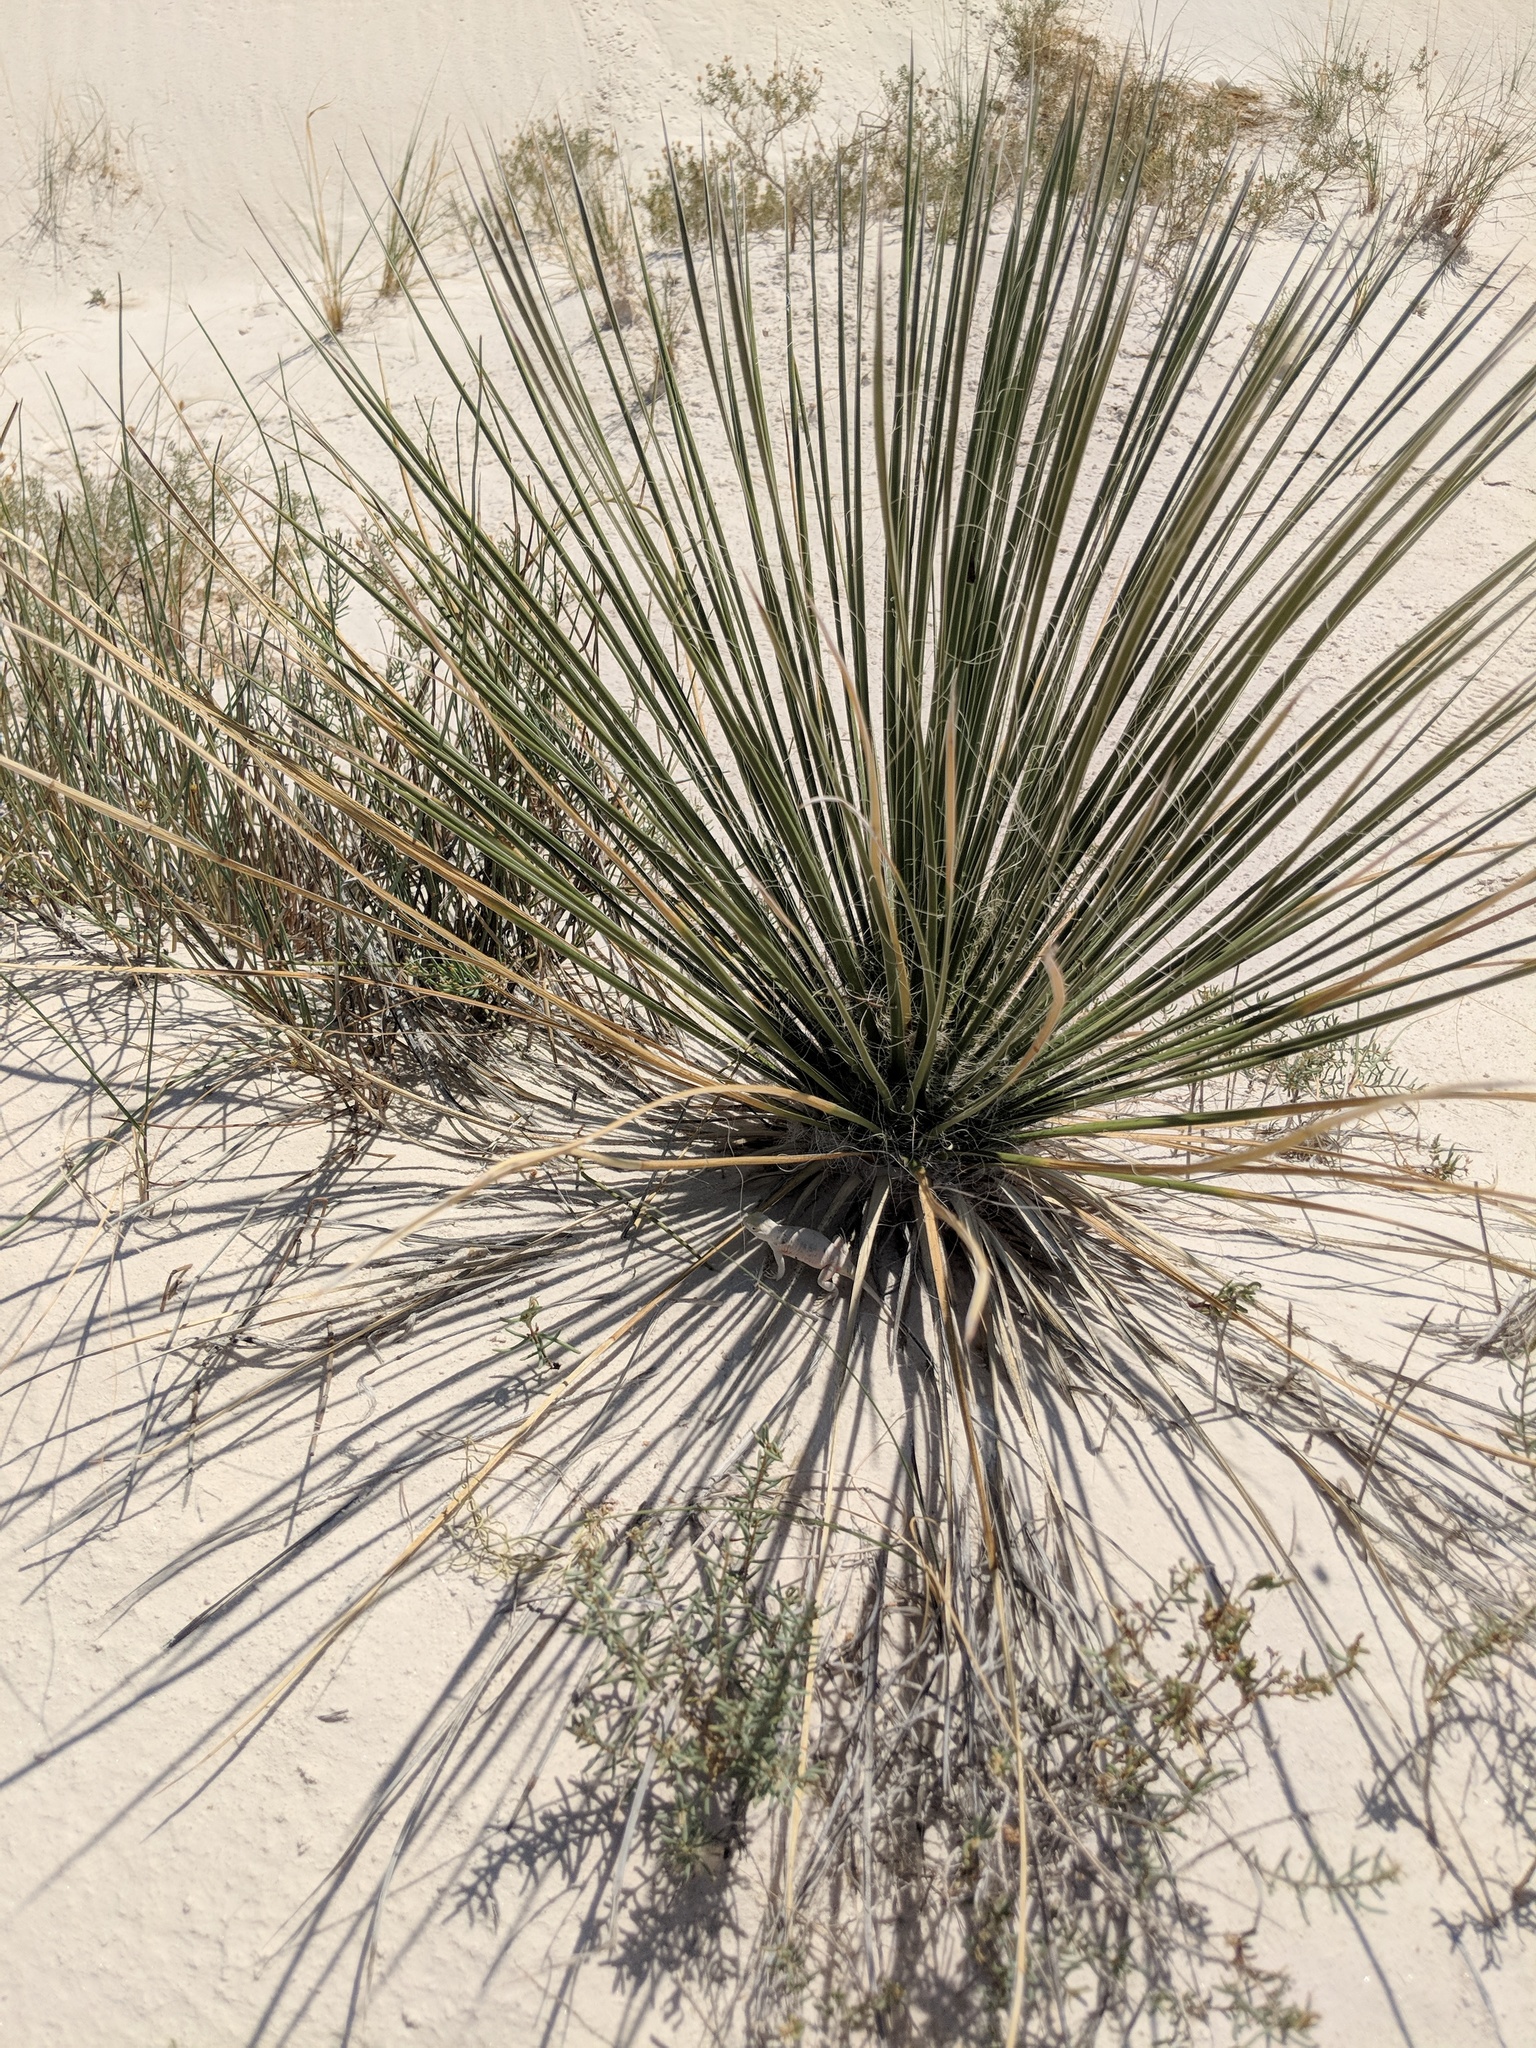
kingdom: Plantae
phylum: Tracheophyta
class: Liliopsida
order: Asparagales
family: Asparagaceae
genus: Yucca
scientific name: Yucca elata
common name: Palmella
